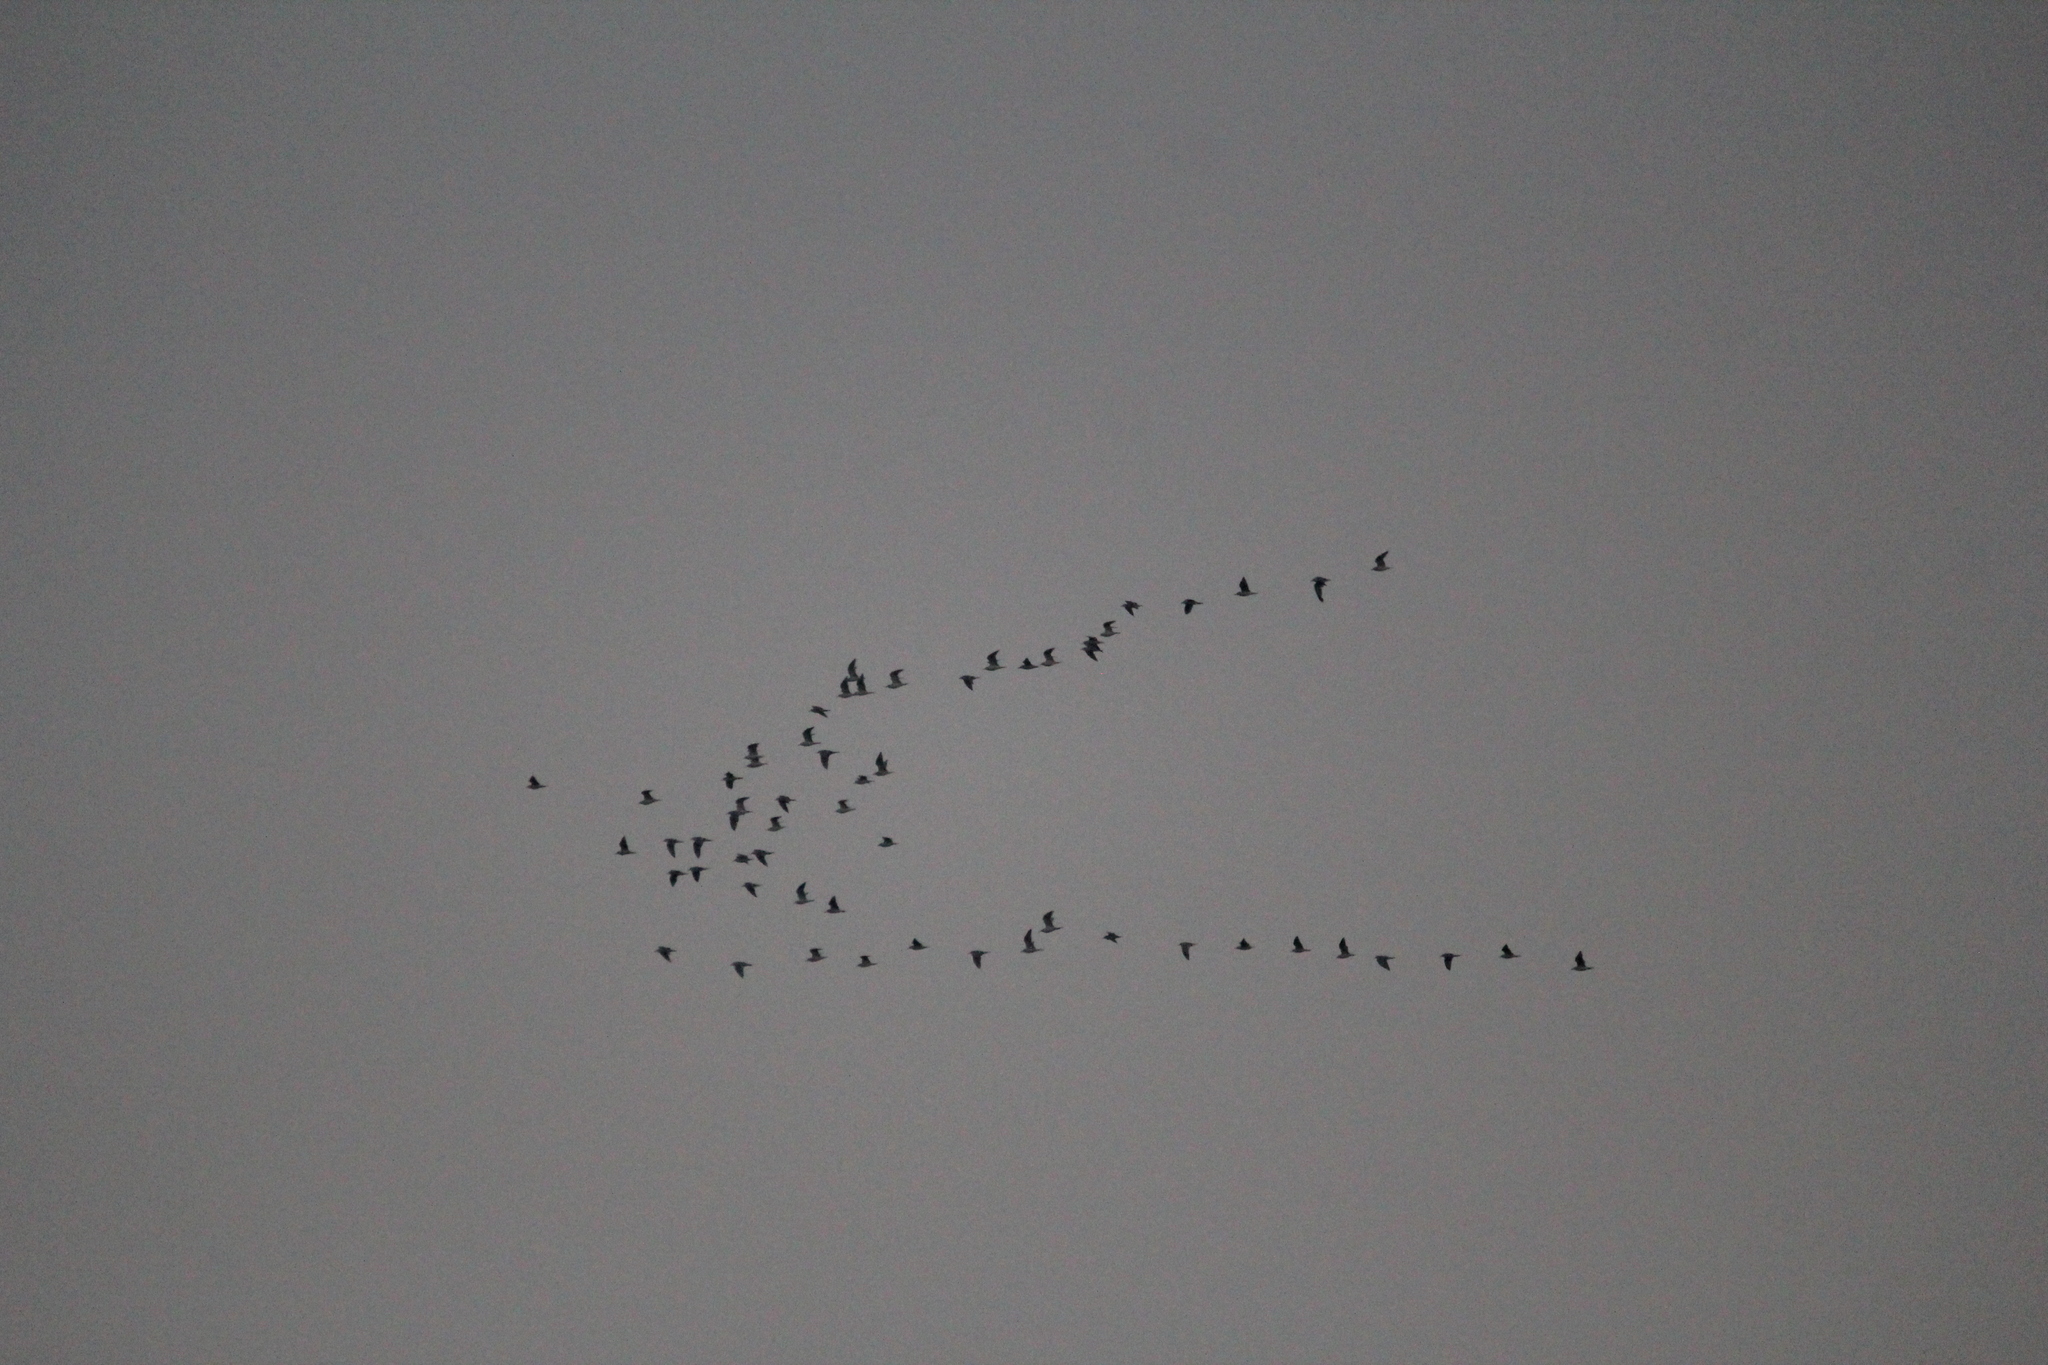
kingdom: Animalia
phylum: Chordata
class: Aves
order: Charadriiformes
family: Laridae
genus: Larus
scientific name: Larus delawarensis
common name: Ring-billed gull
